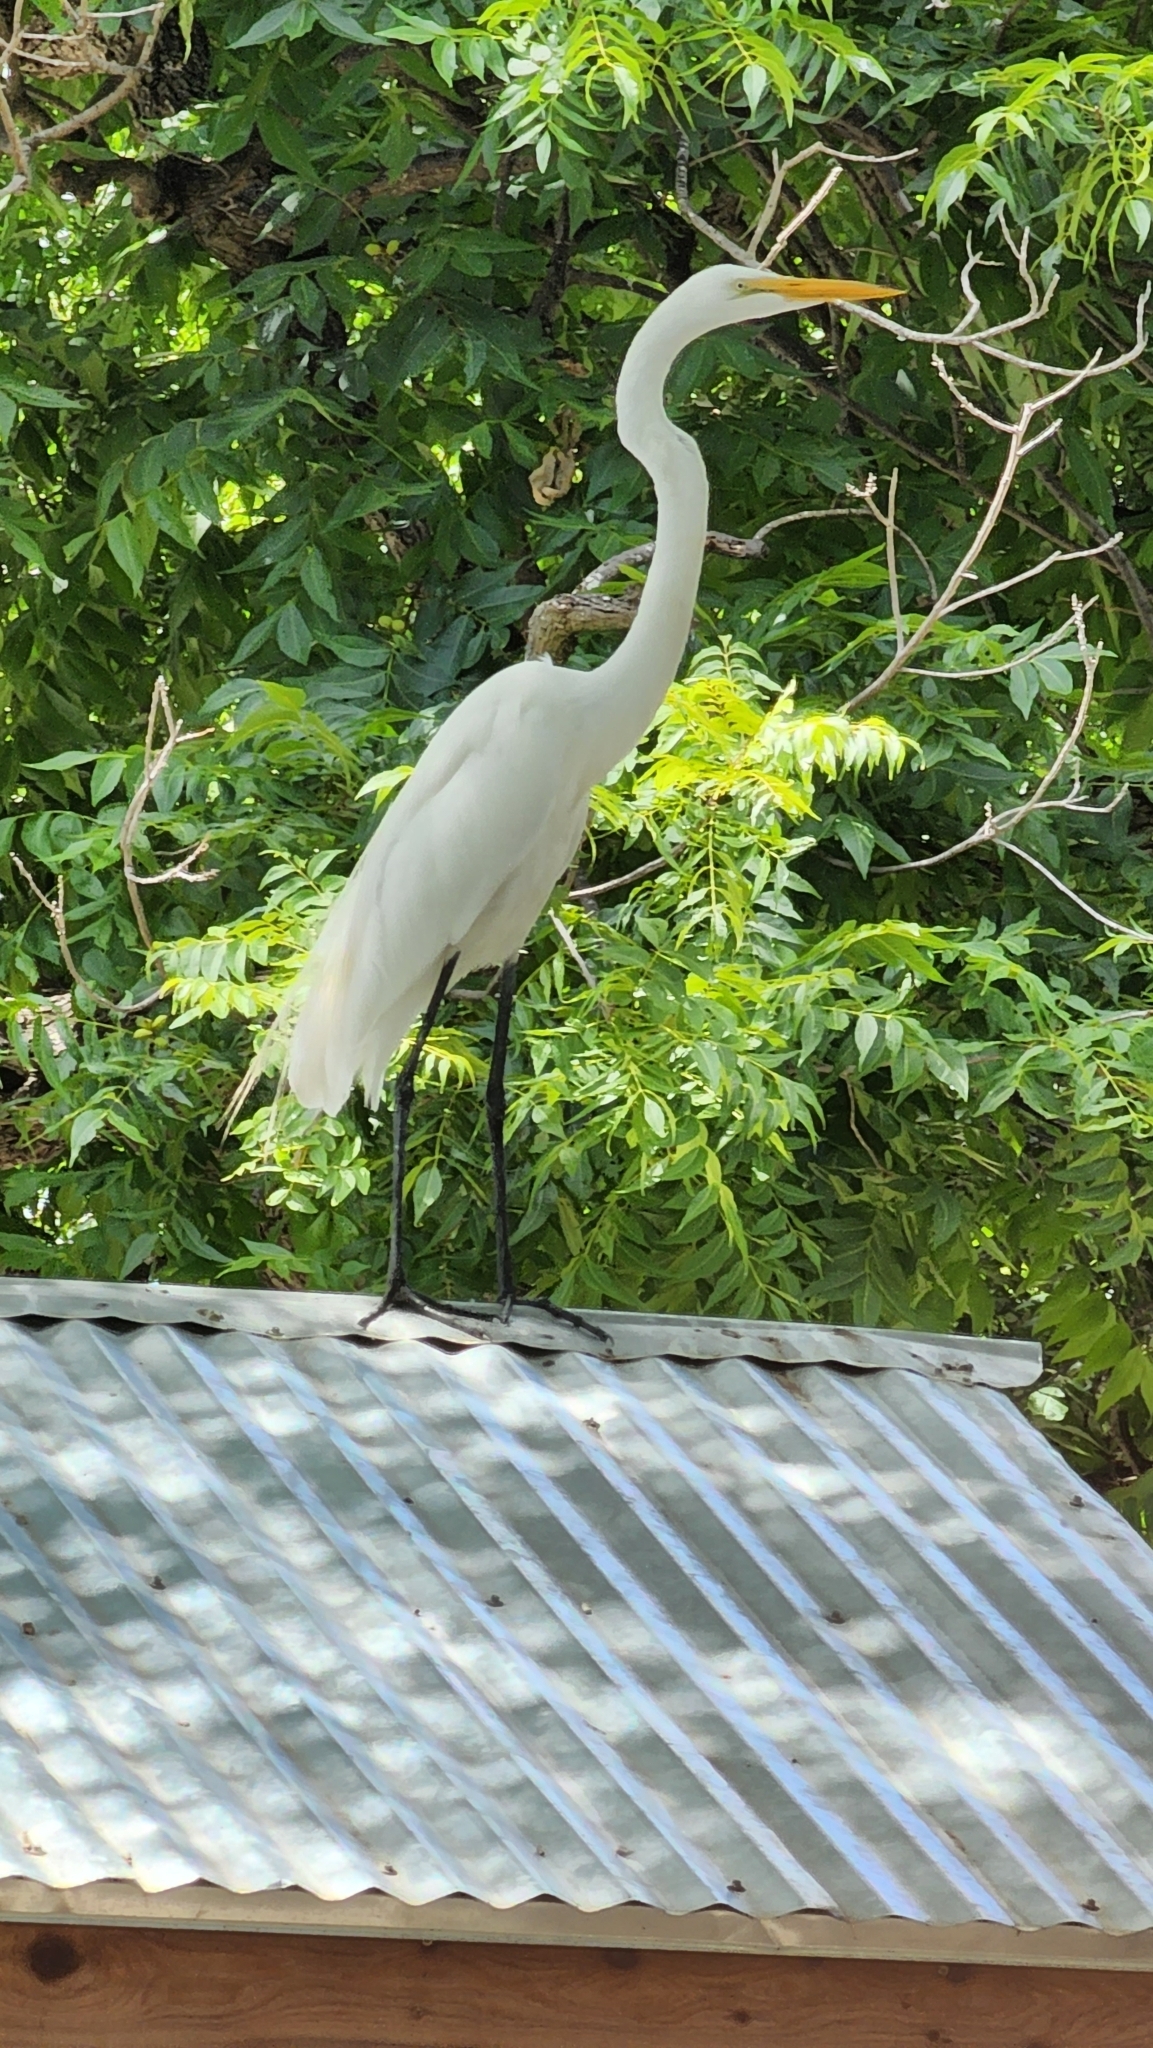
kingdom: Animalia
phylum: Chordata
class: Aves
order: Pelecaniformes
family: Ardeidae
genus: Ardea
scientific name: Ardea alba
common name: Great egret
